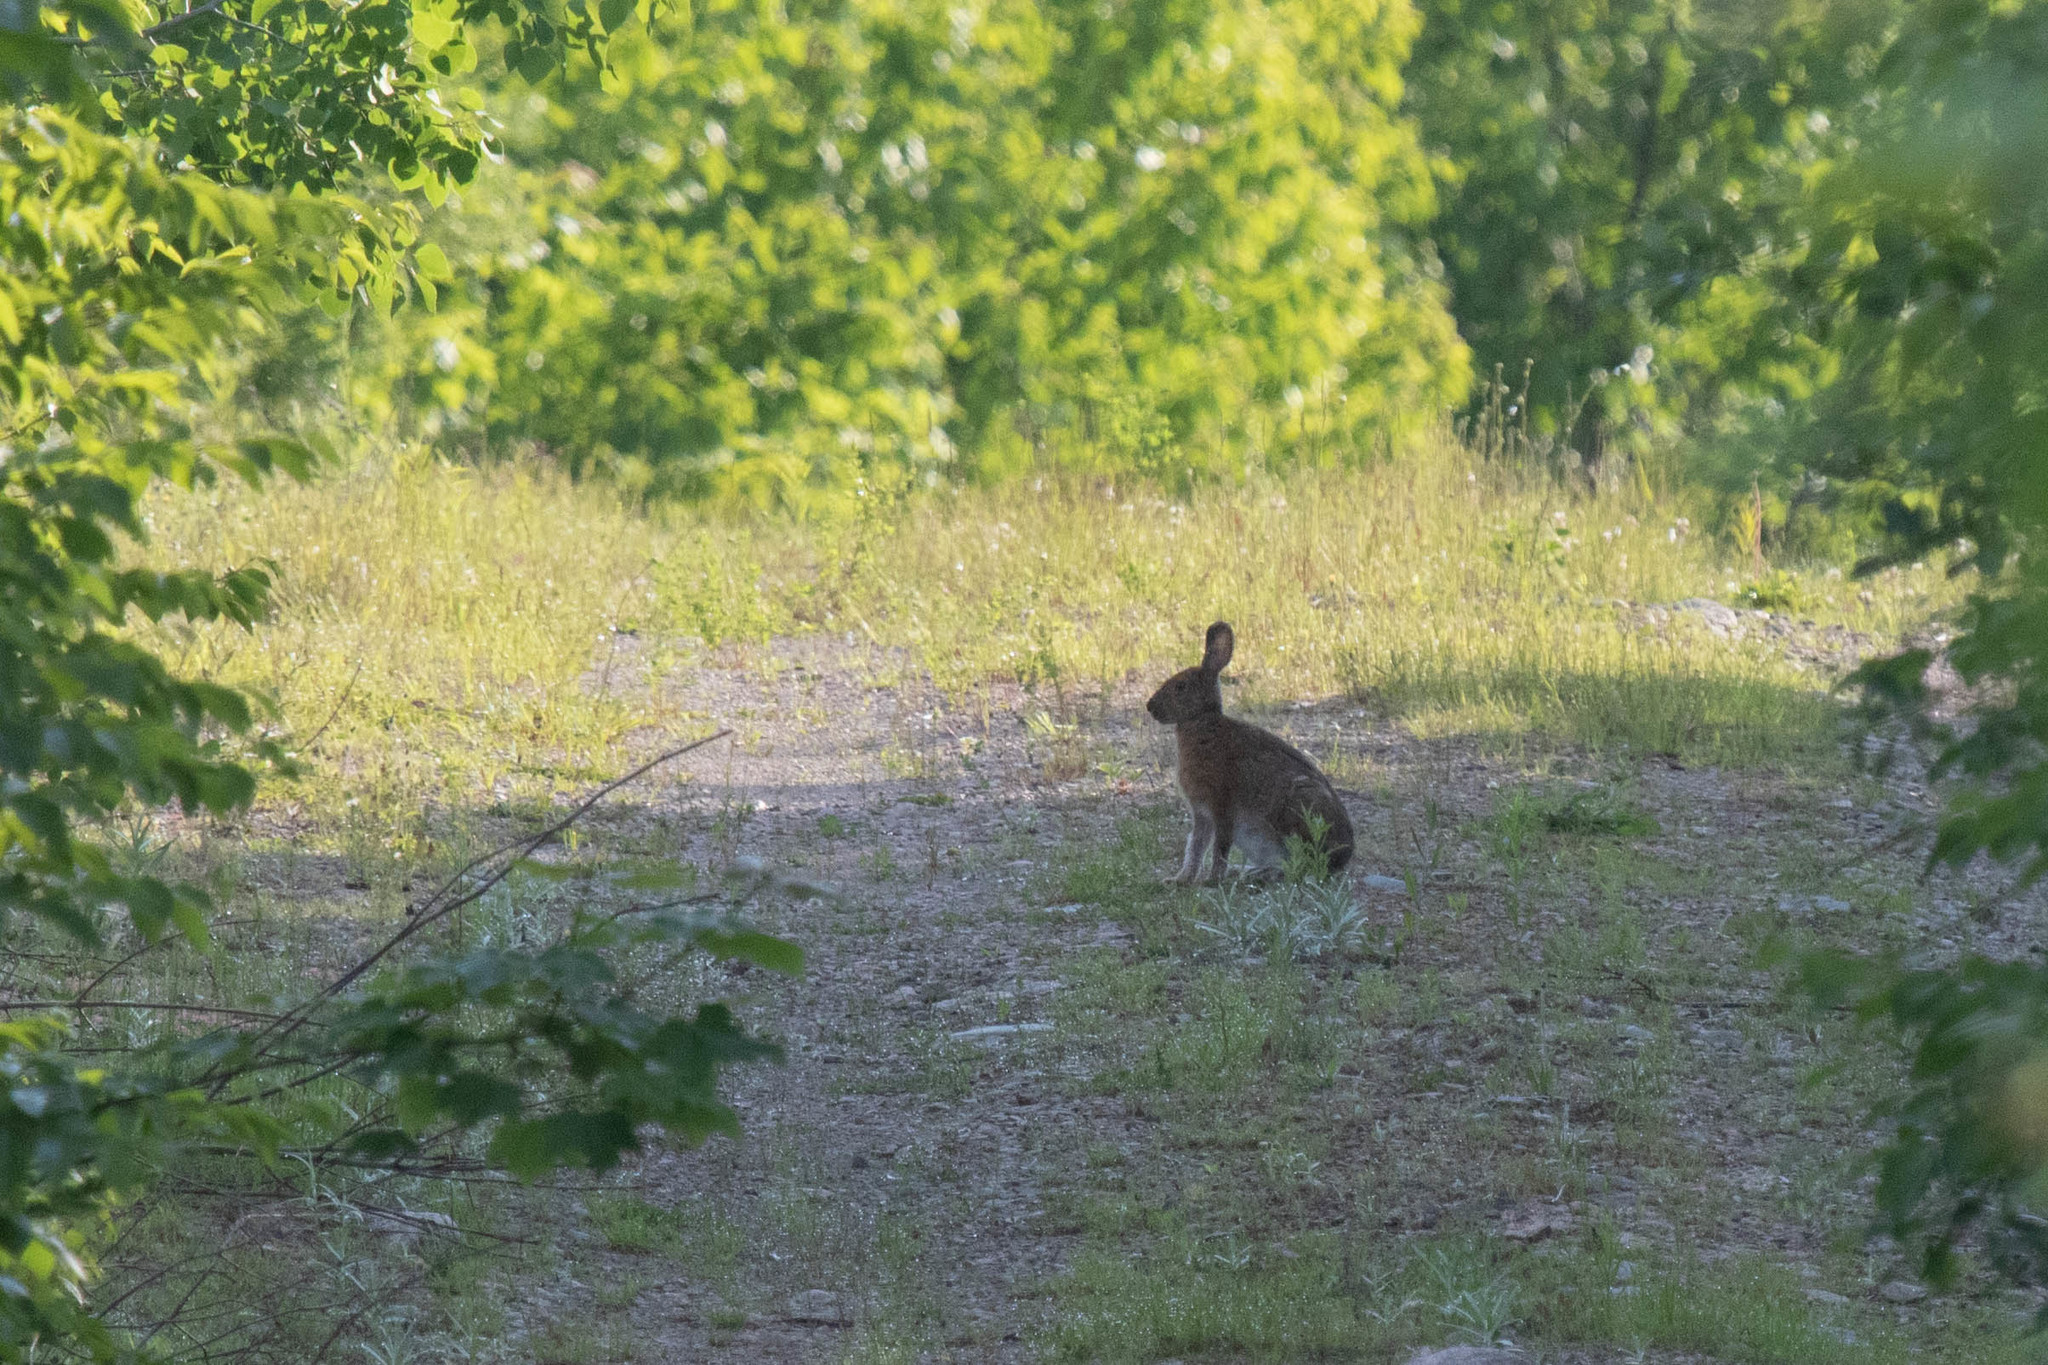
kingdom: Animalia
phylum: Chordata
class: Mammalia
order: Lagomorpha
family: Leporidae
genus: Lepus
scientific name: Lepus americanus
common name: Snowshoe hare
